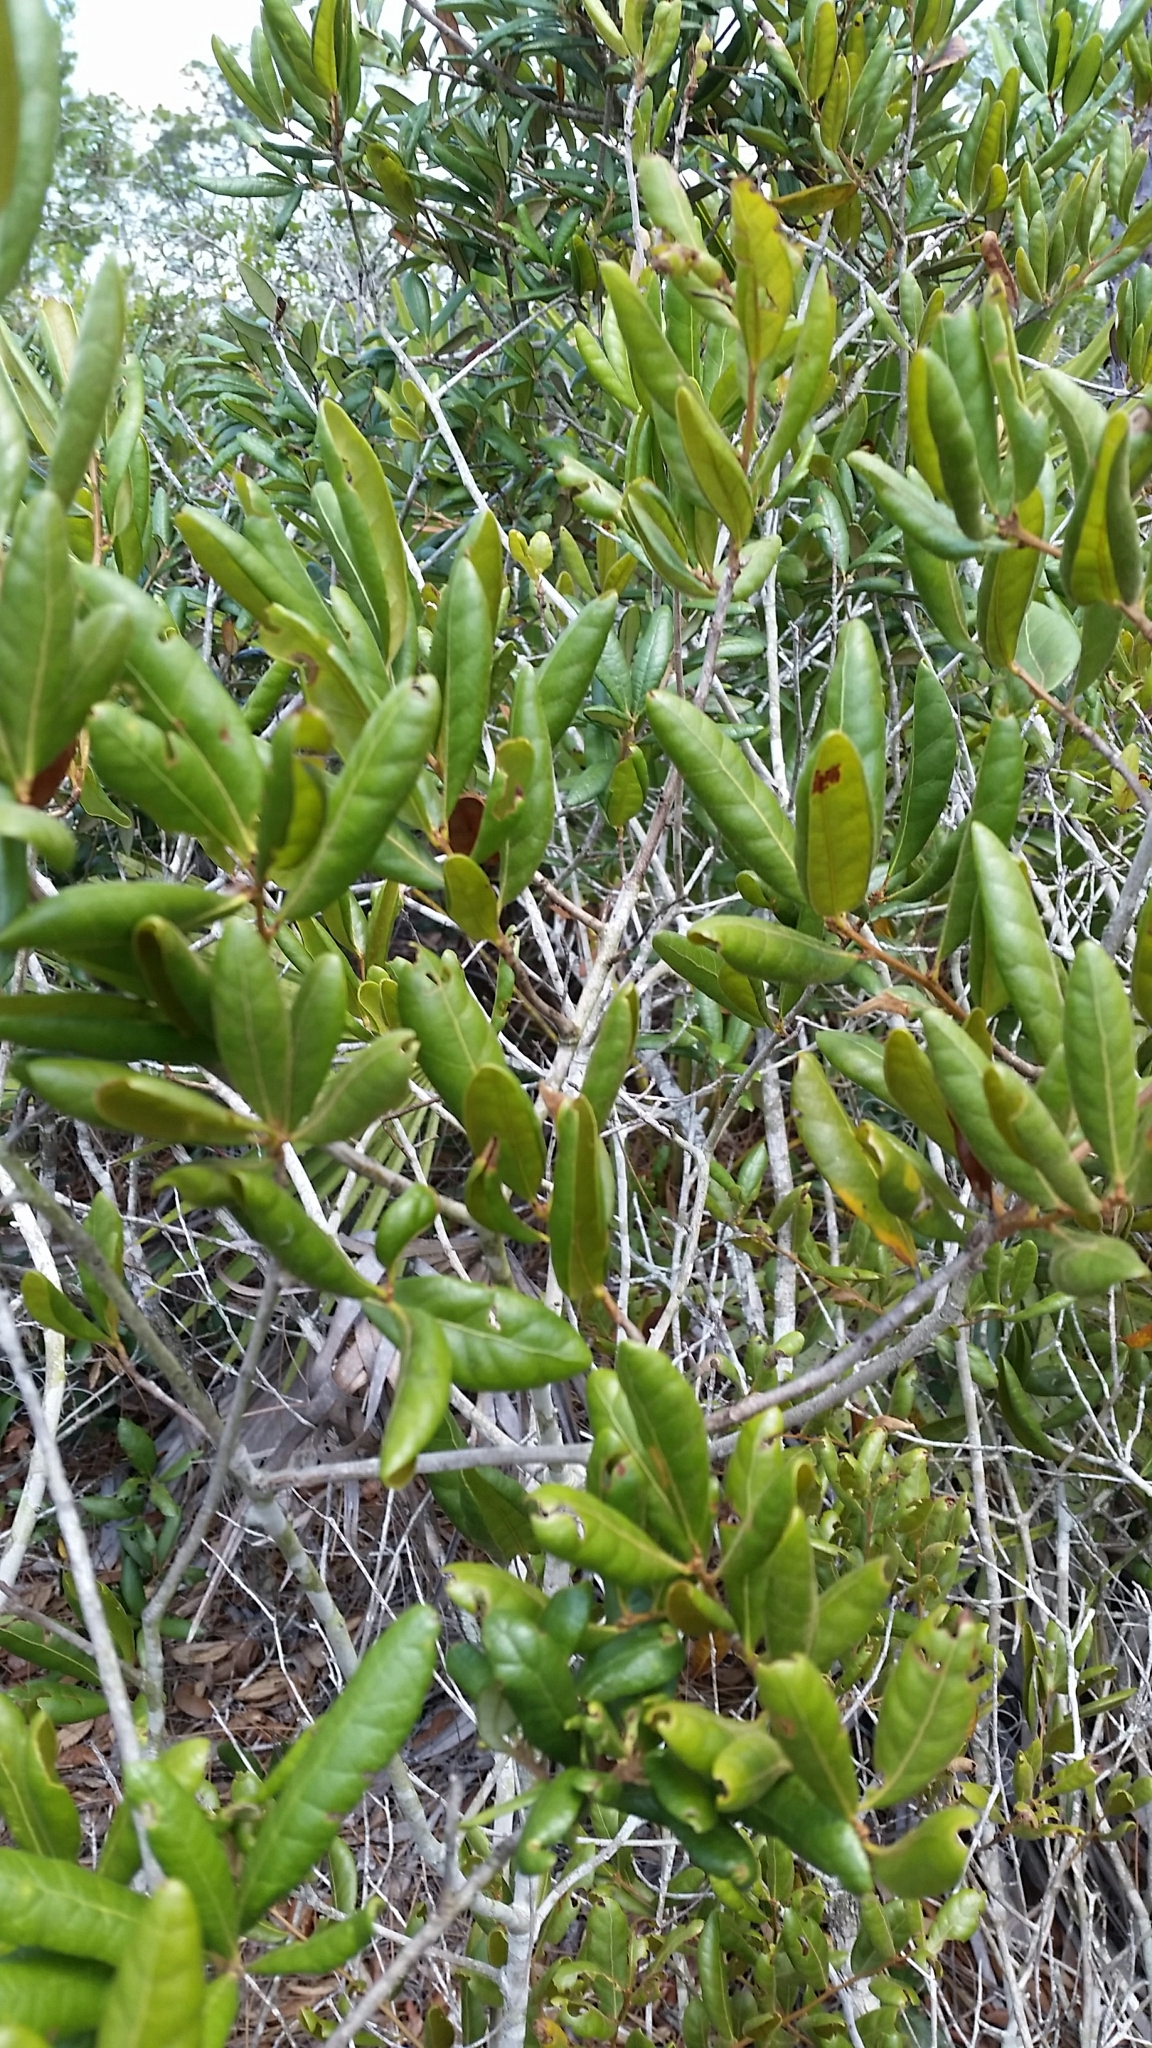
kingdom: Plantae
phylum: Tracheophyta
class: Magnoliopsida
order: Fagales
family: Fagaceae
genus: Quercus
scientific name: Quercus inopina
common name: Sandhill oak
